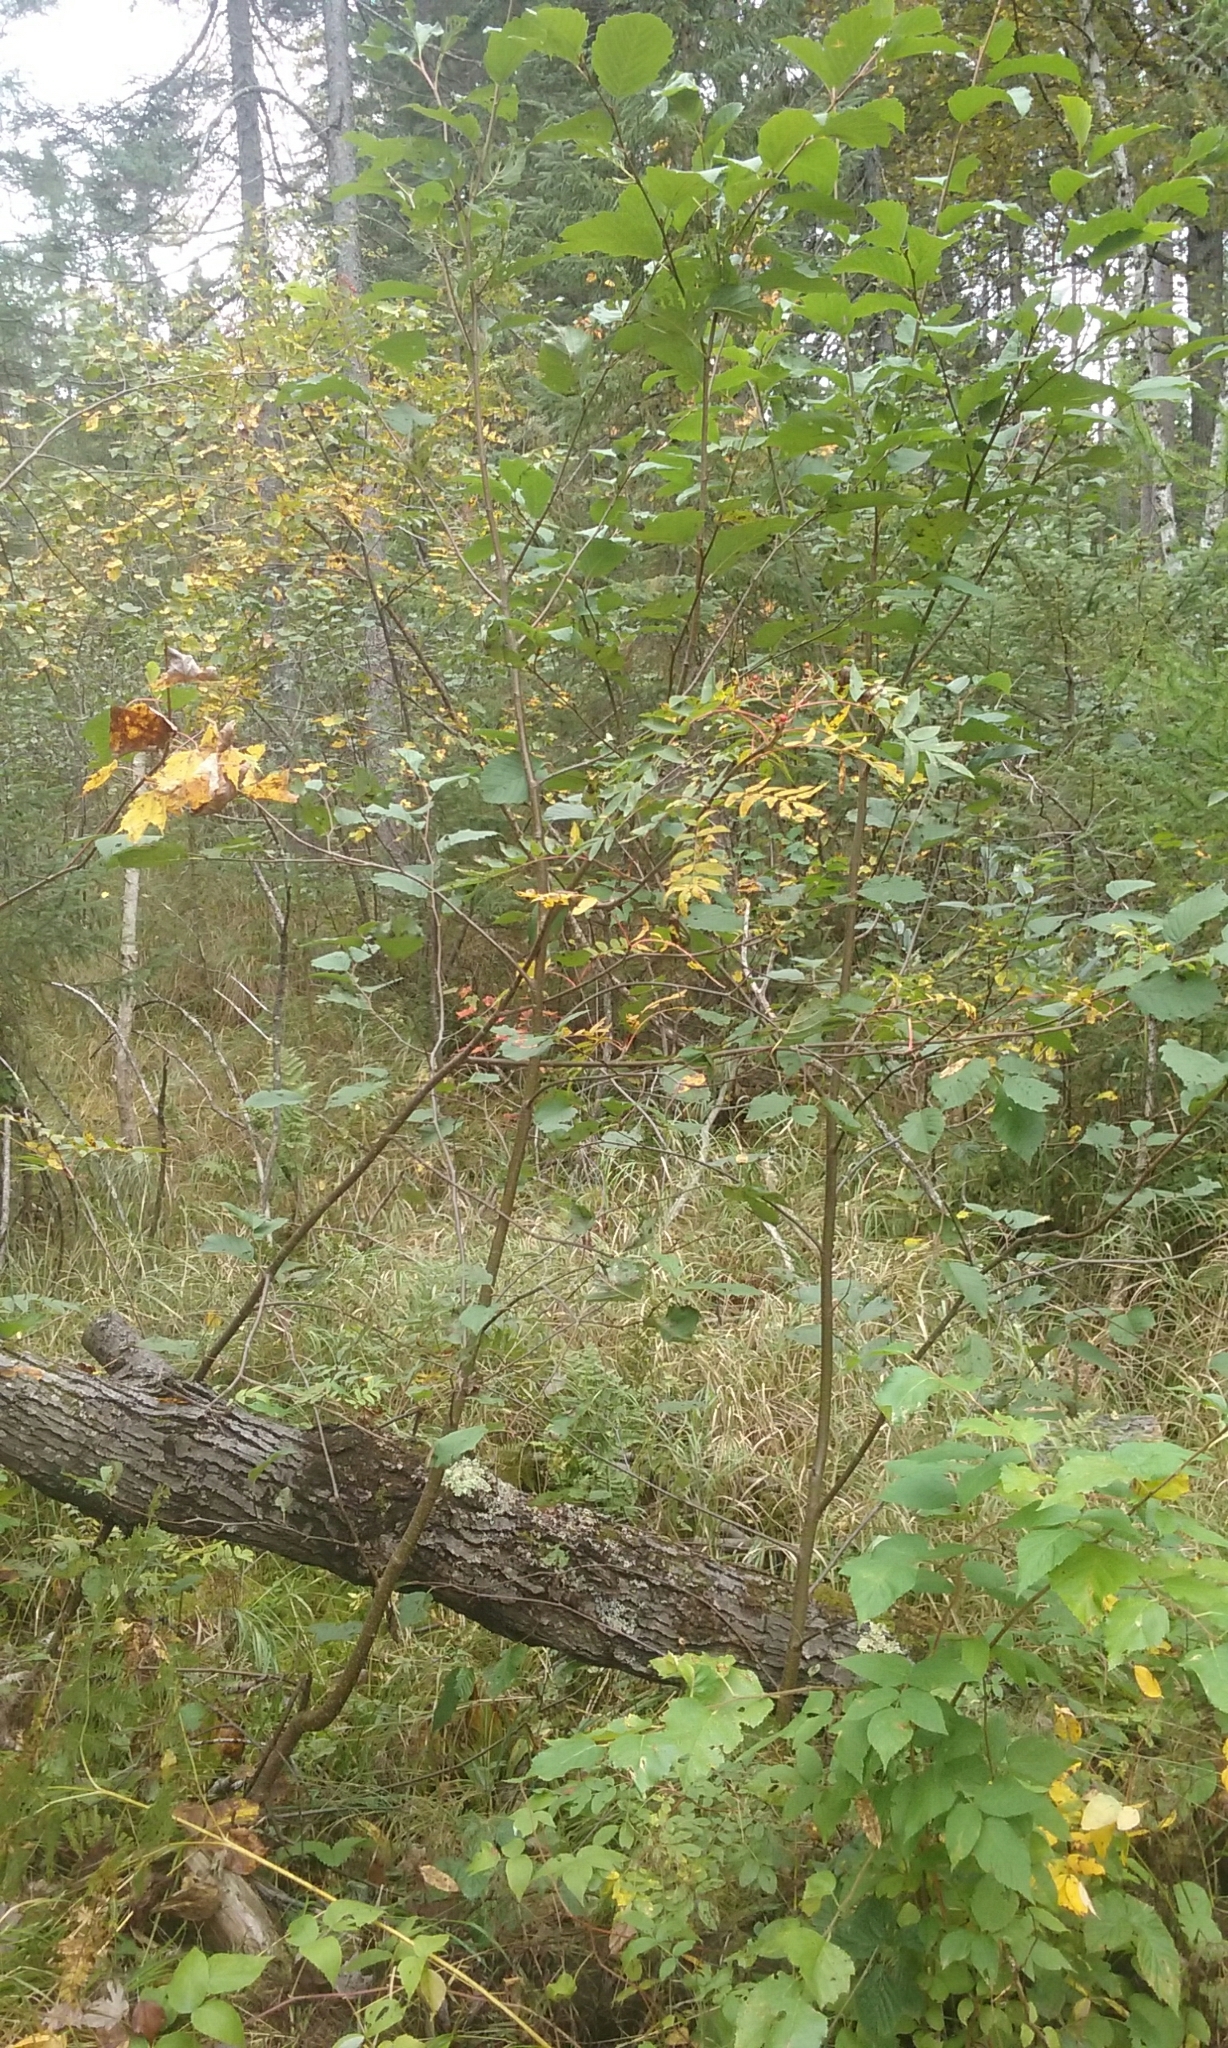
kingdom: Plantae
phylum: Tracheophyta
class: Magnoliopsida
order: Rosales
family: Rosaceae
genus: Sorbus
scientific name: Sorbus americana
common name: American mountain-ash
